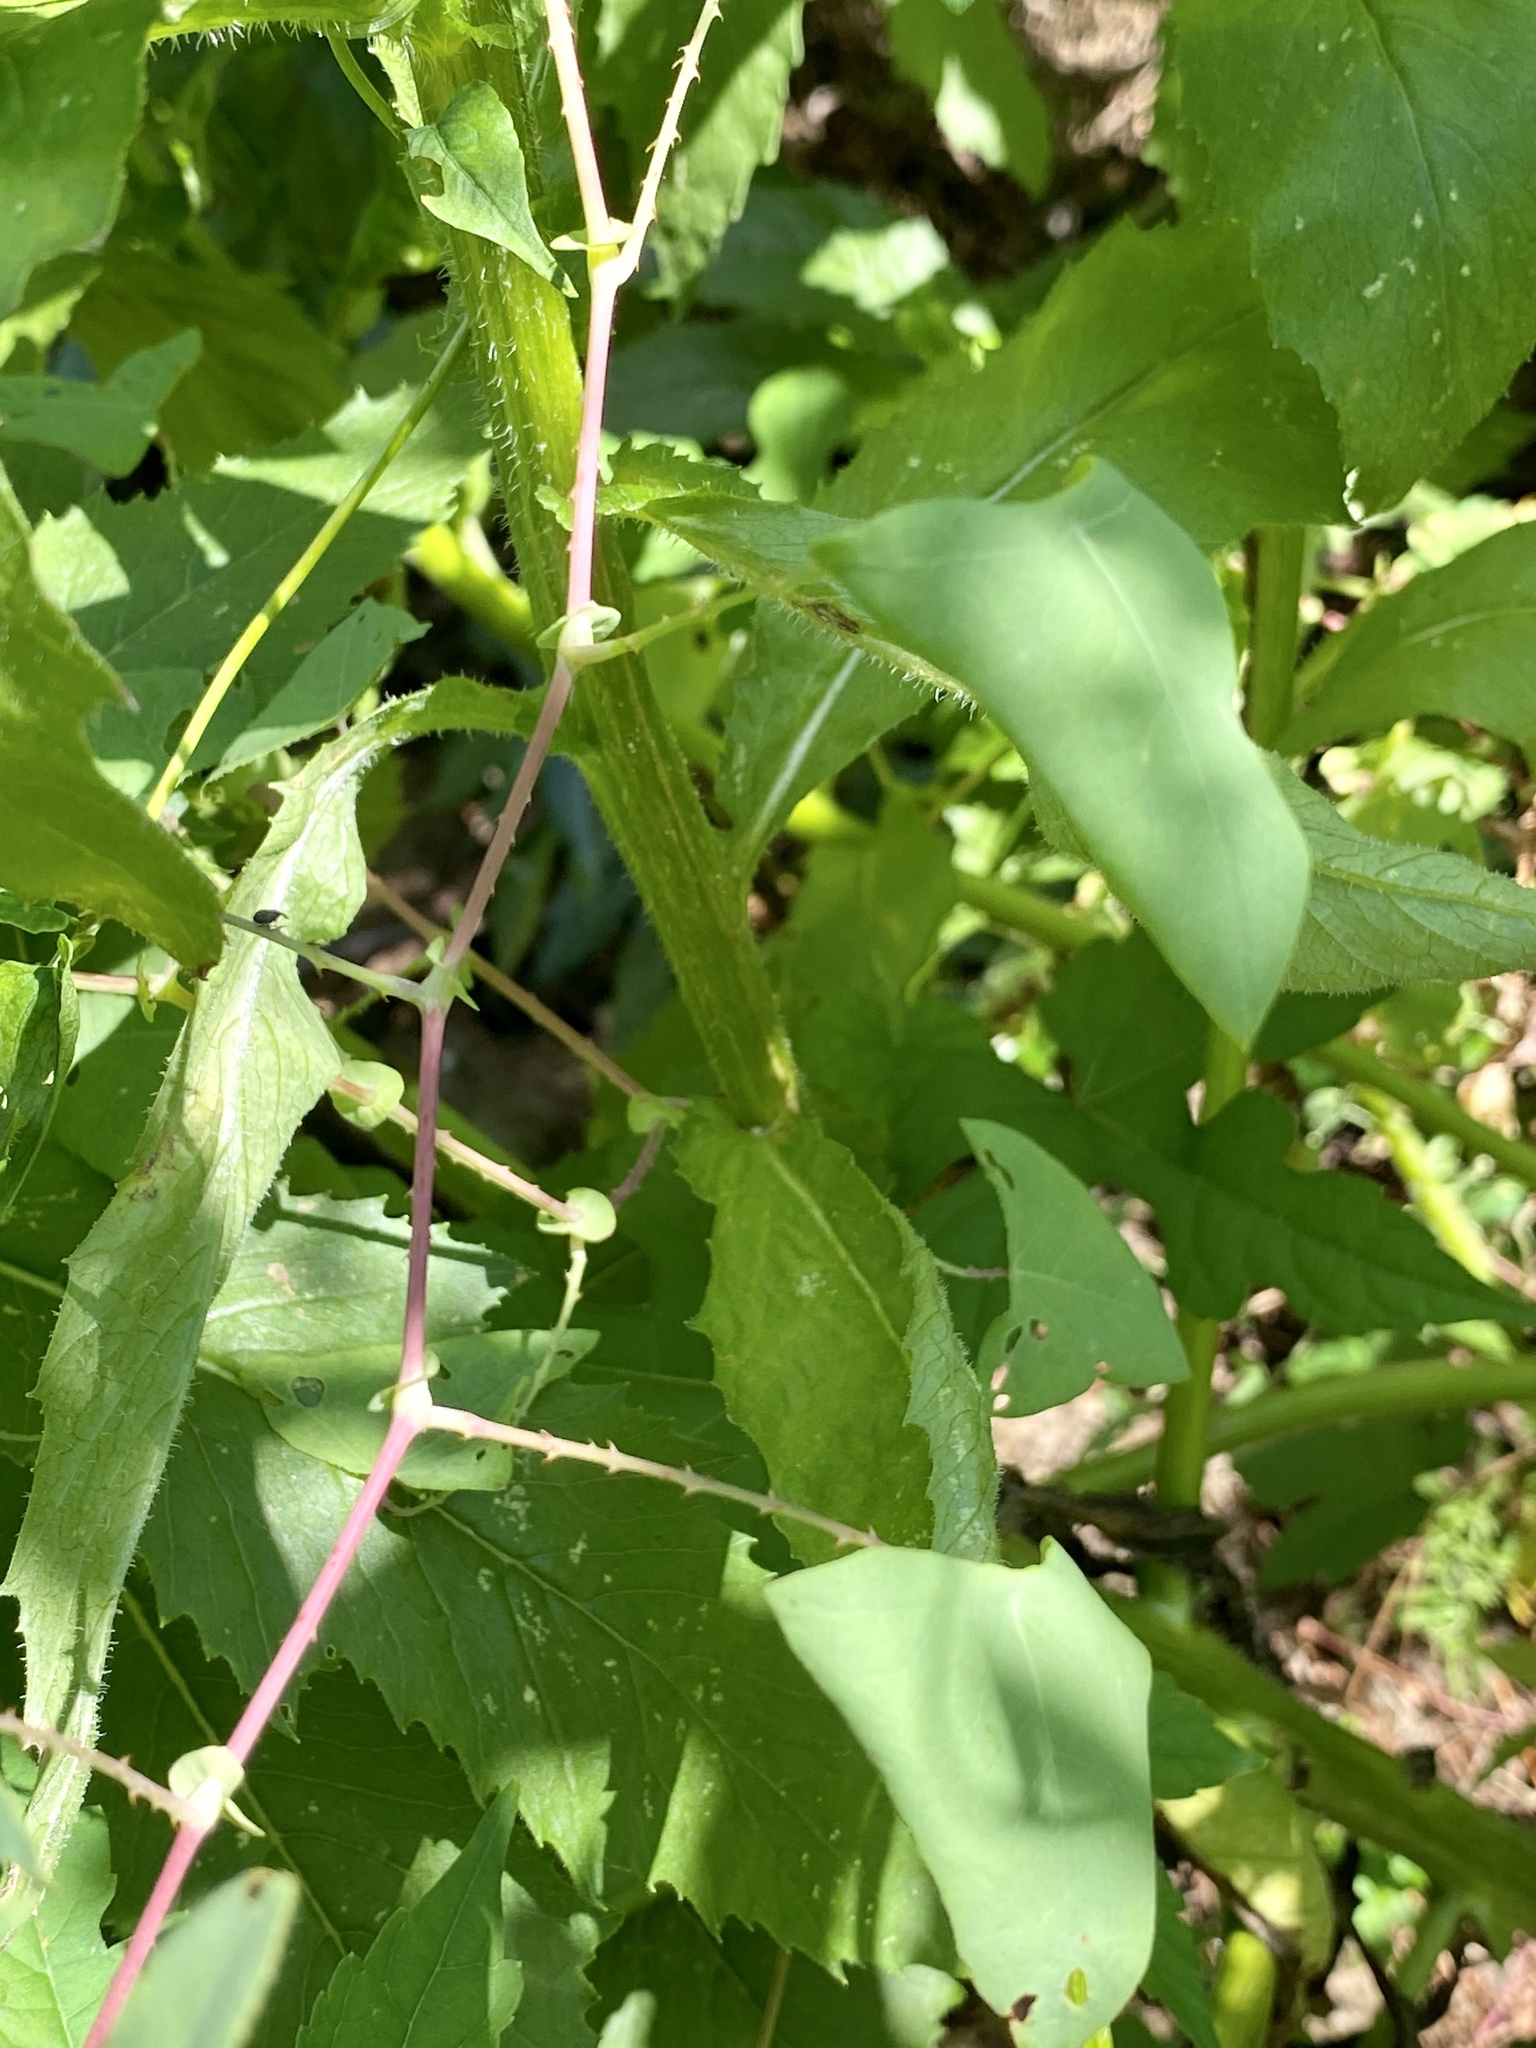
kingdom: Plantae
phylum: Tracheophyta
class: Magnoliopsida
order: Caryophyllales
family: Polygonaceae
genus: Persicaria
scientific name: Persicaria perfoliata
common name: Asiatic tearthumb
